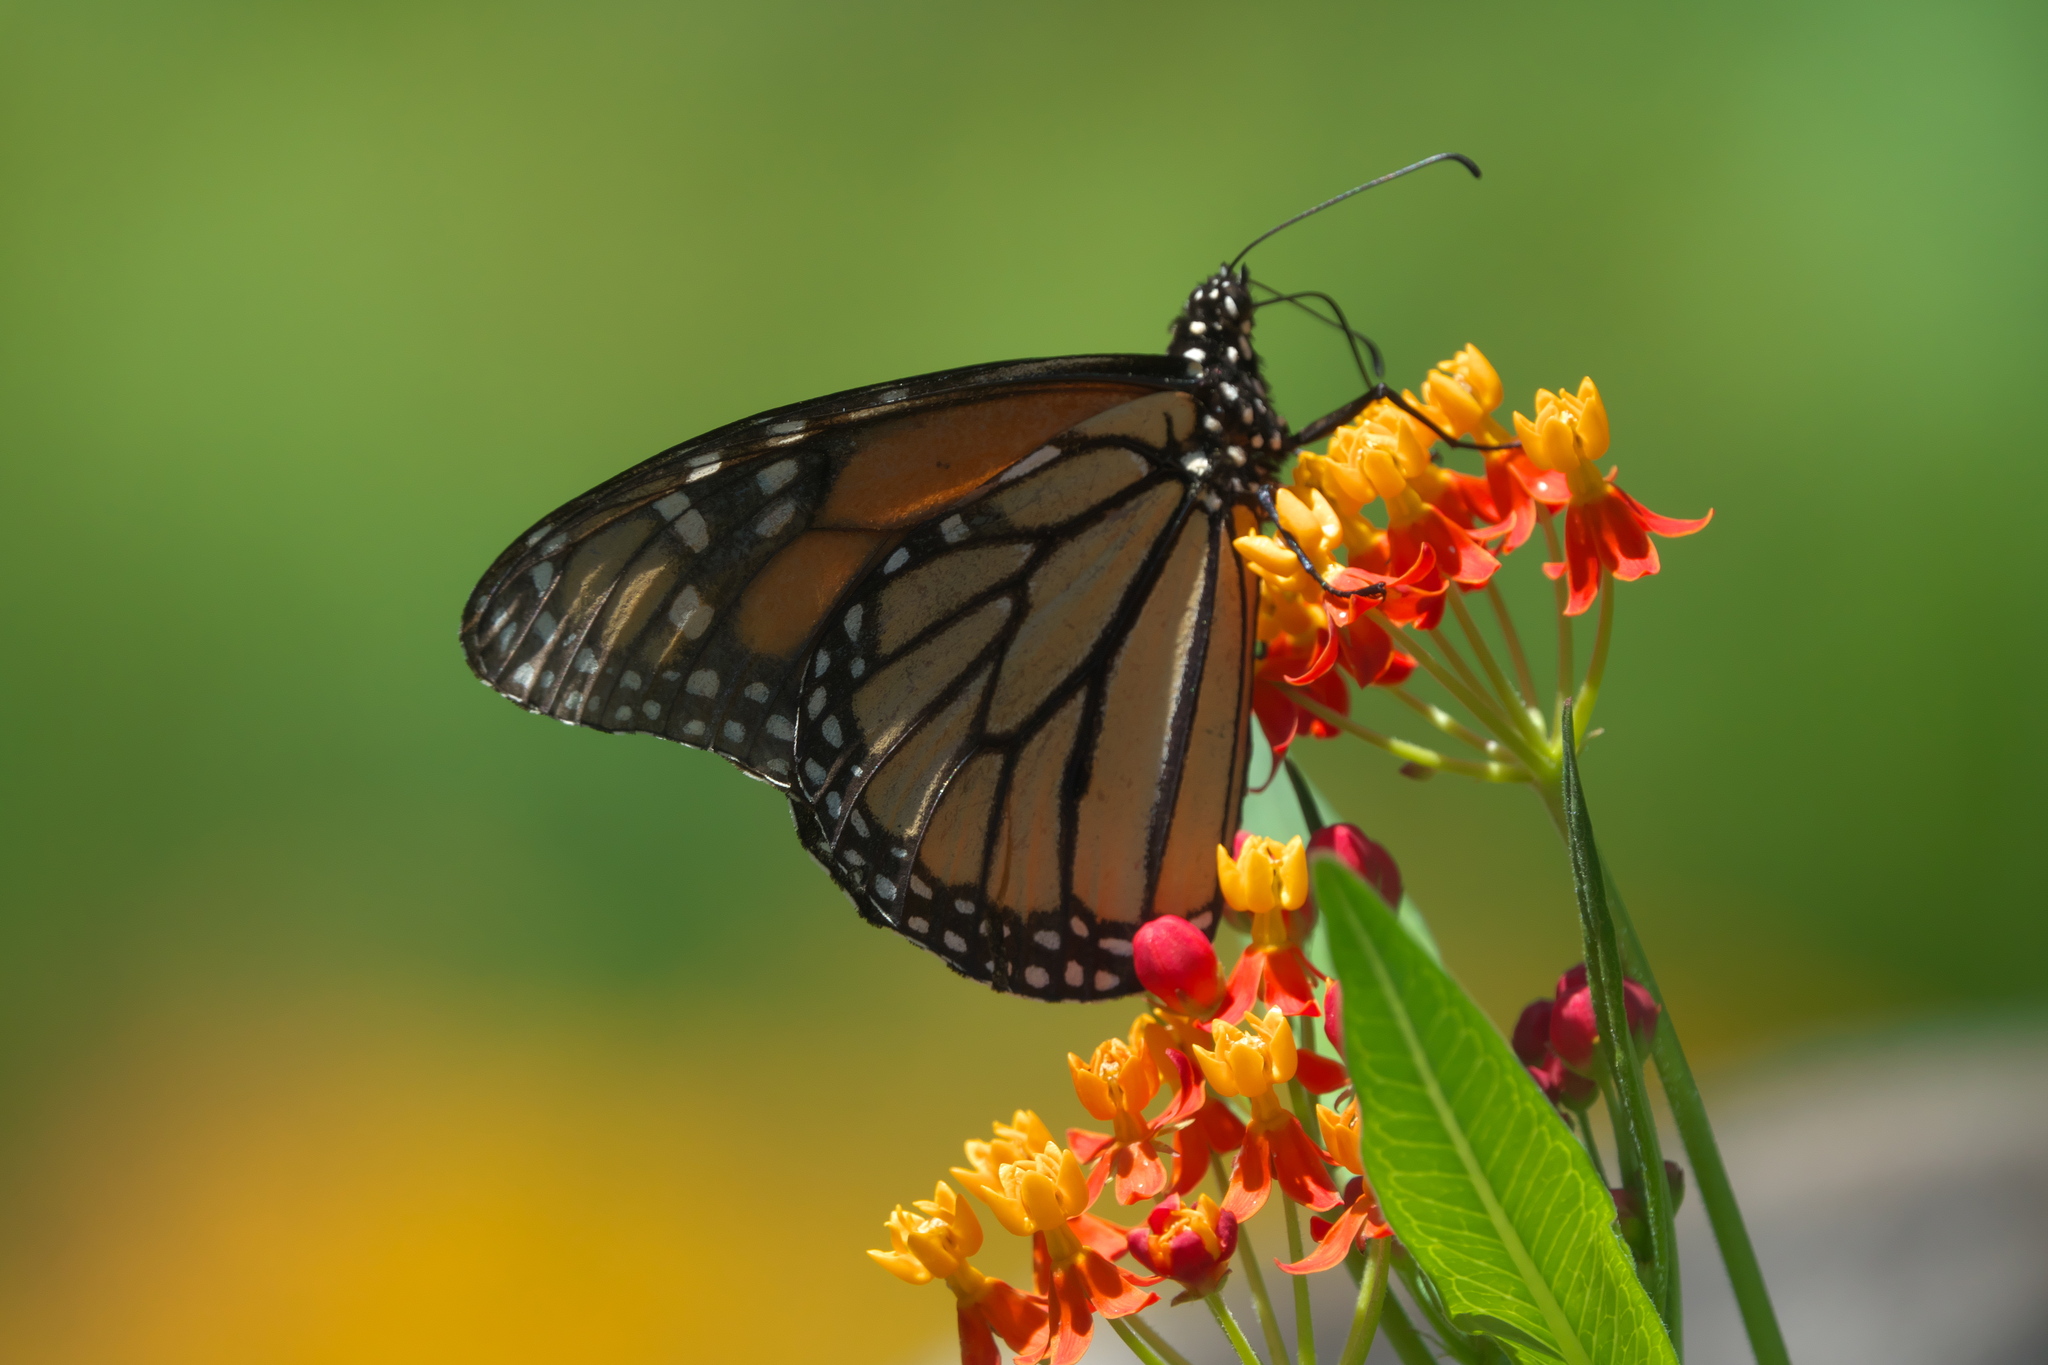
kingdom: Animalia
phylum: Arthropoda
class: Insecta
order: Lepidoptera
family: Nymphalidae
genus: Danaus
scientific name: Danaus plexippus
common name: Monarch
